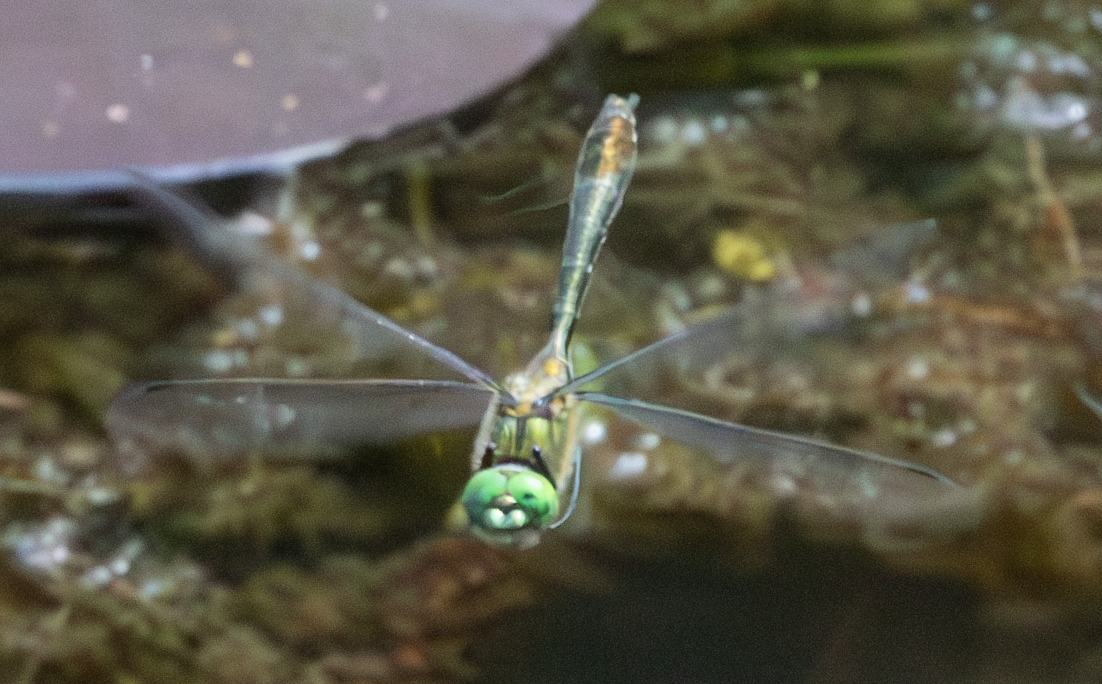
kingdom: Animalia
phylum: Arthropoda
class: Insecta
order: Odonata
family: Corduliidae
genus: Cordulia
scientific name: Cordulia aenea
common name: Downy emerald
